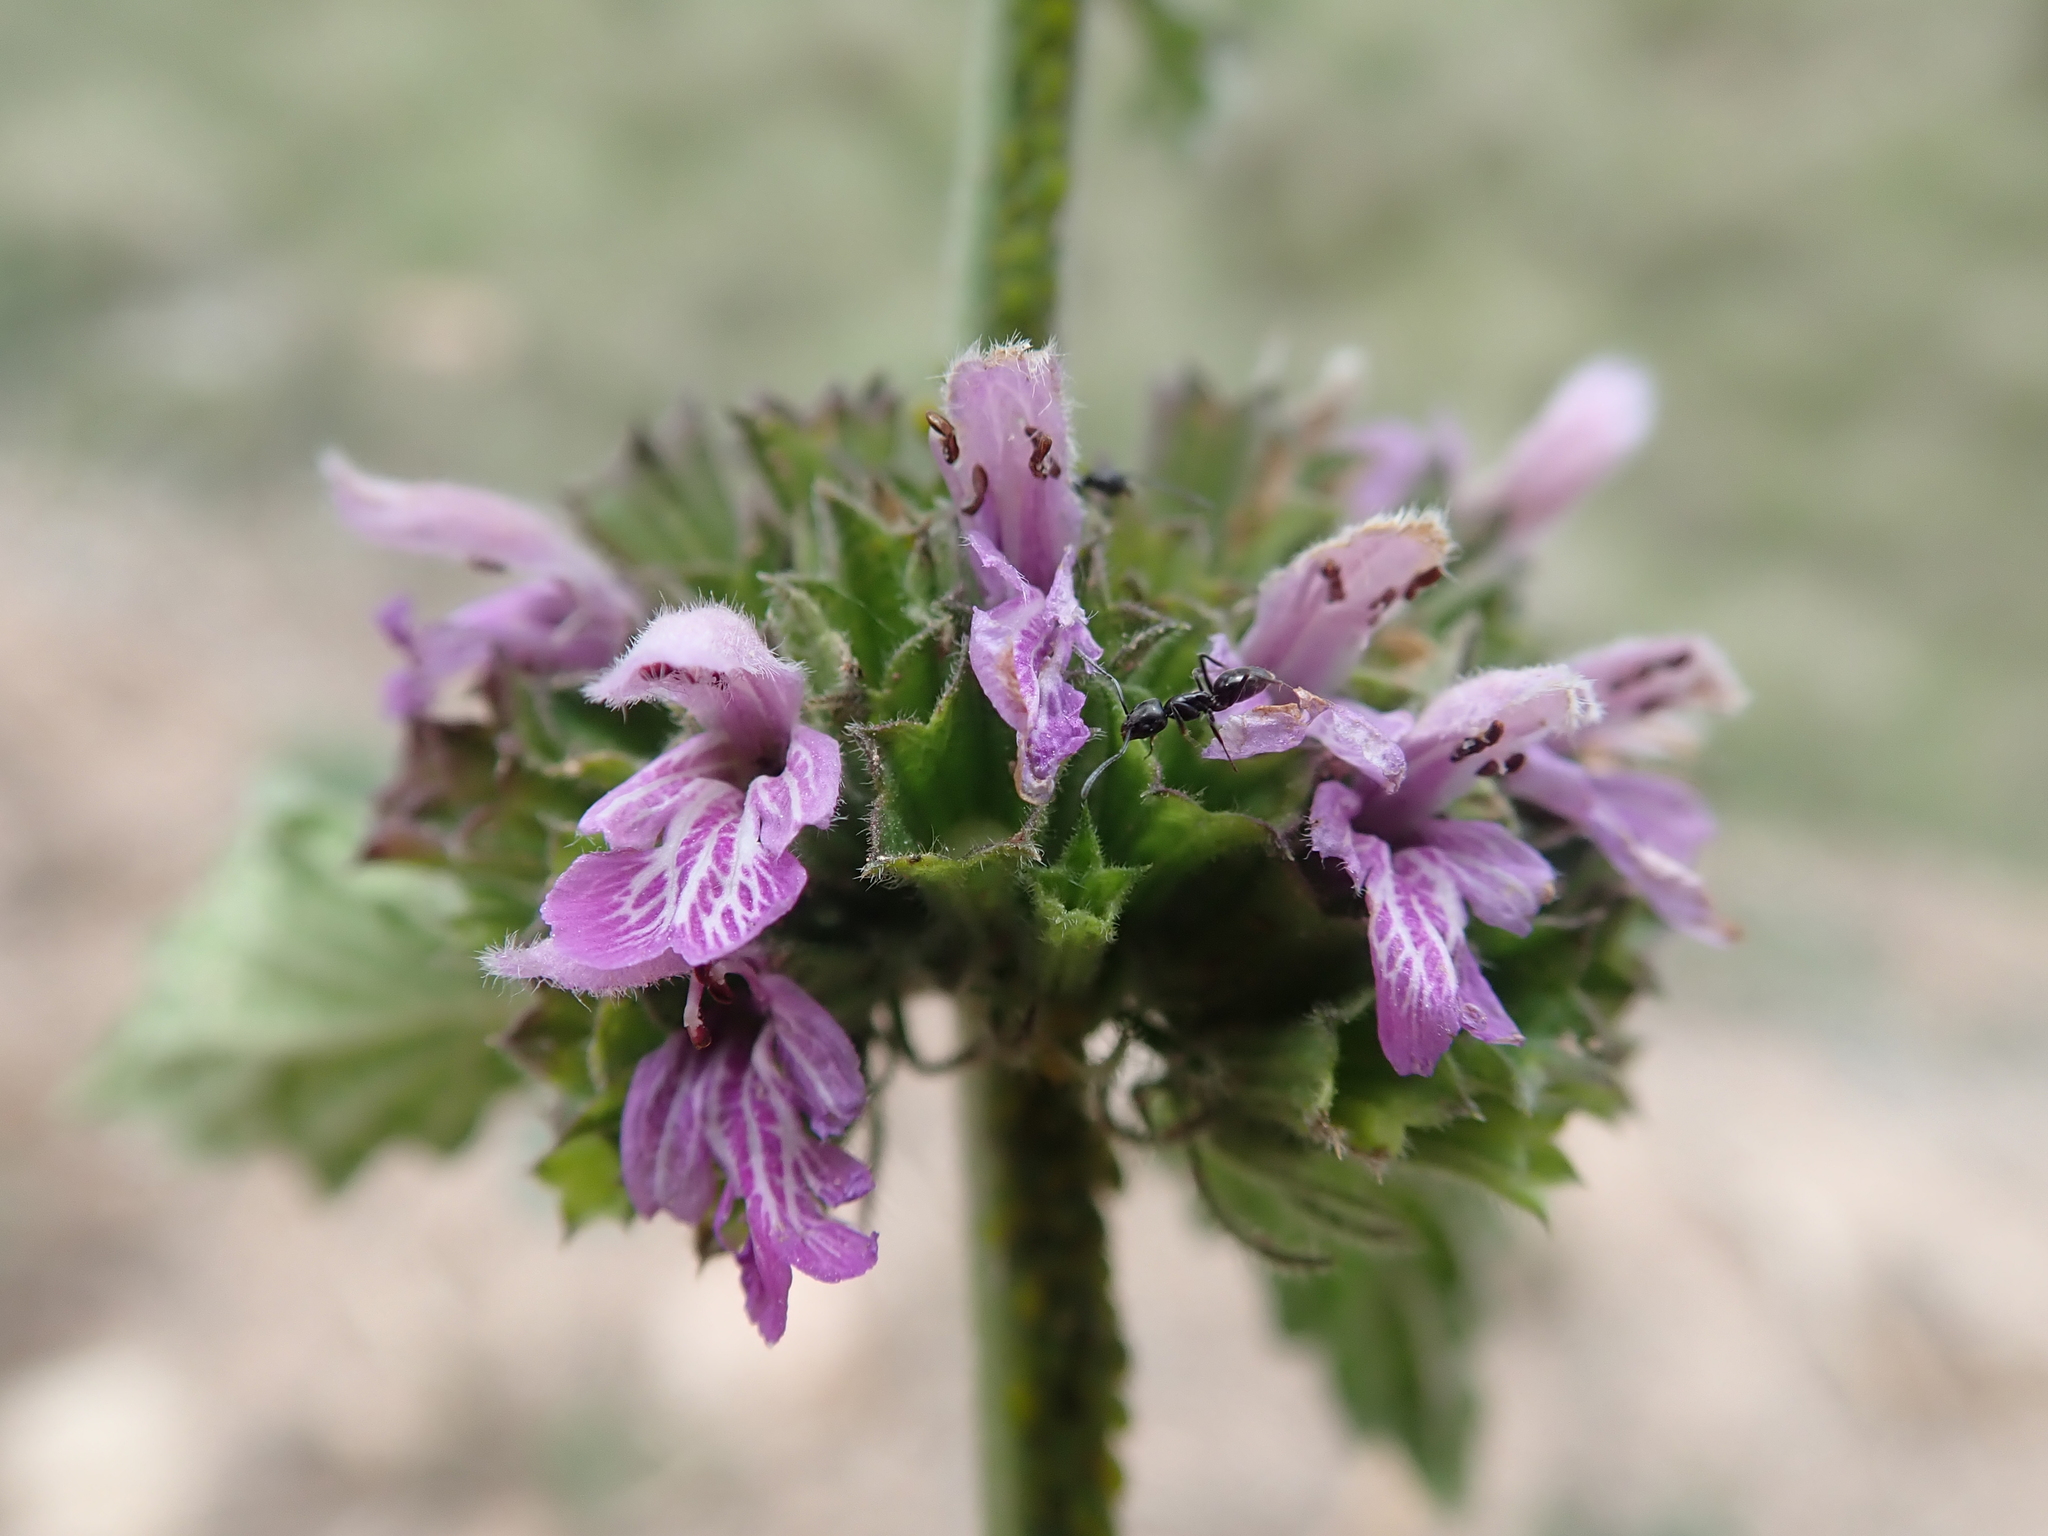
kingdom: Plantae
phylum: Tracheophyta
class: Magnoliopsida
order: Lamiales
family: Lamiaceae
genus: Ballota
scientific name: Ballota nigra
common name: Black horehound
